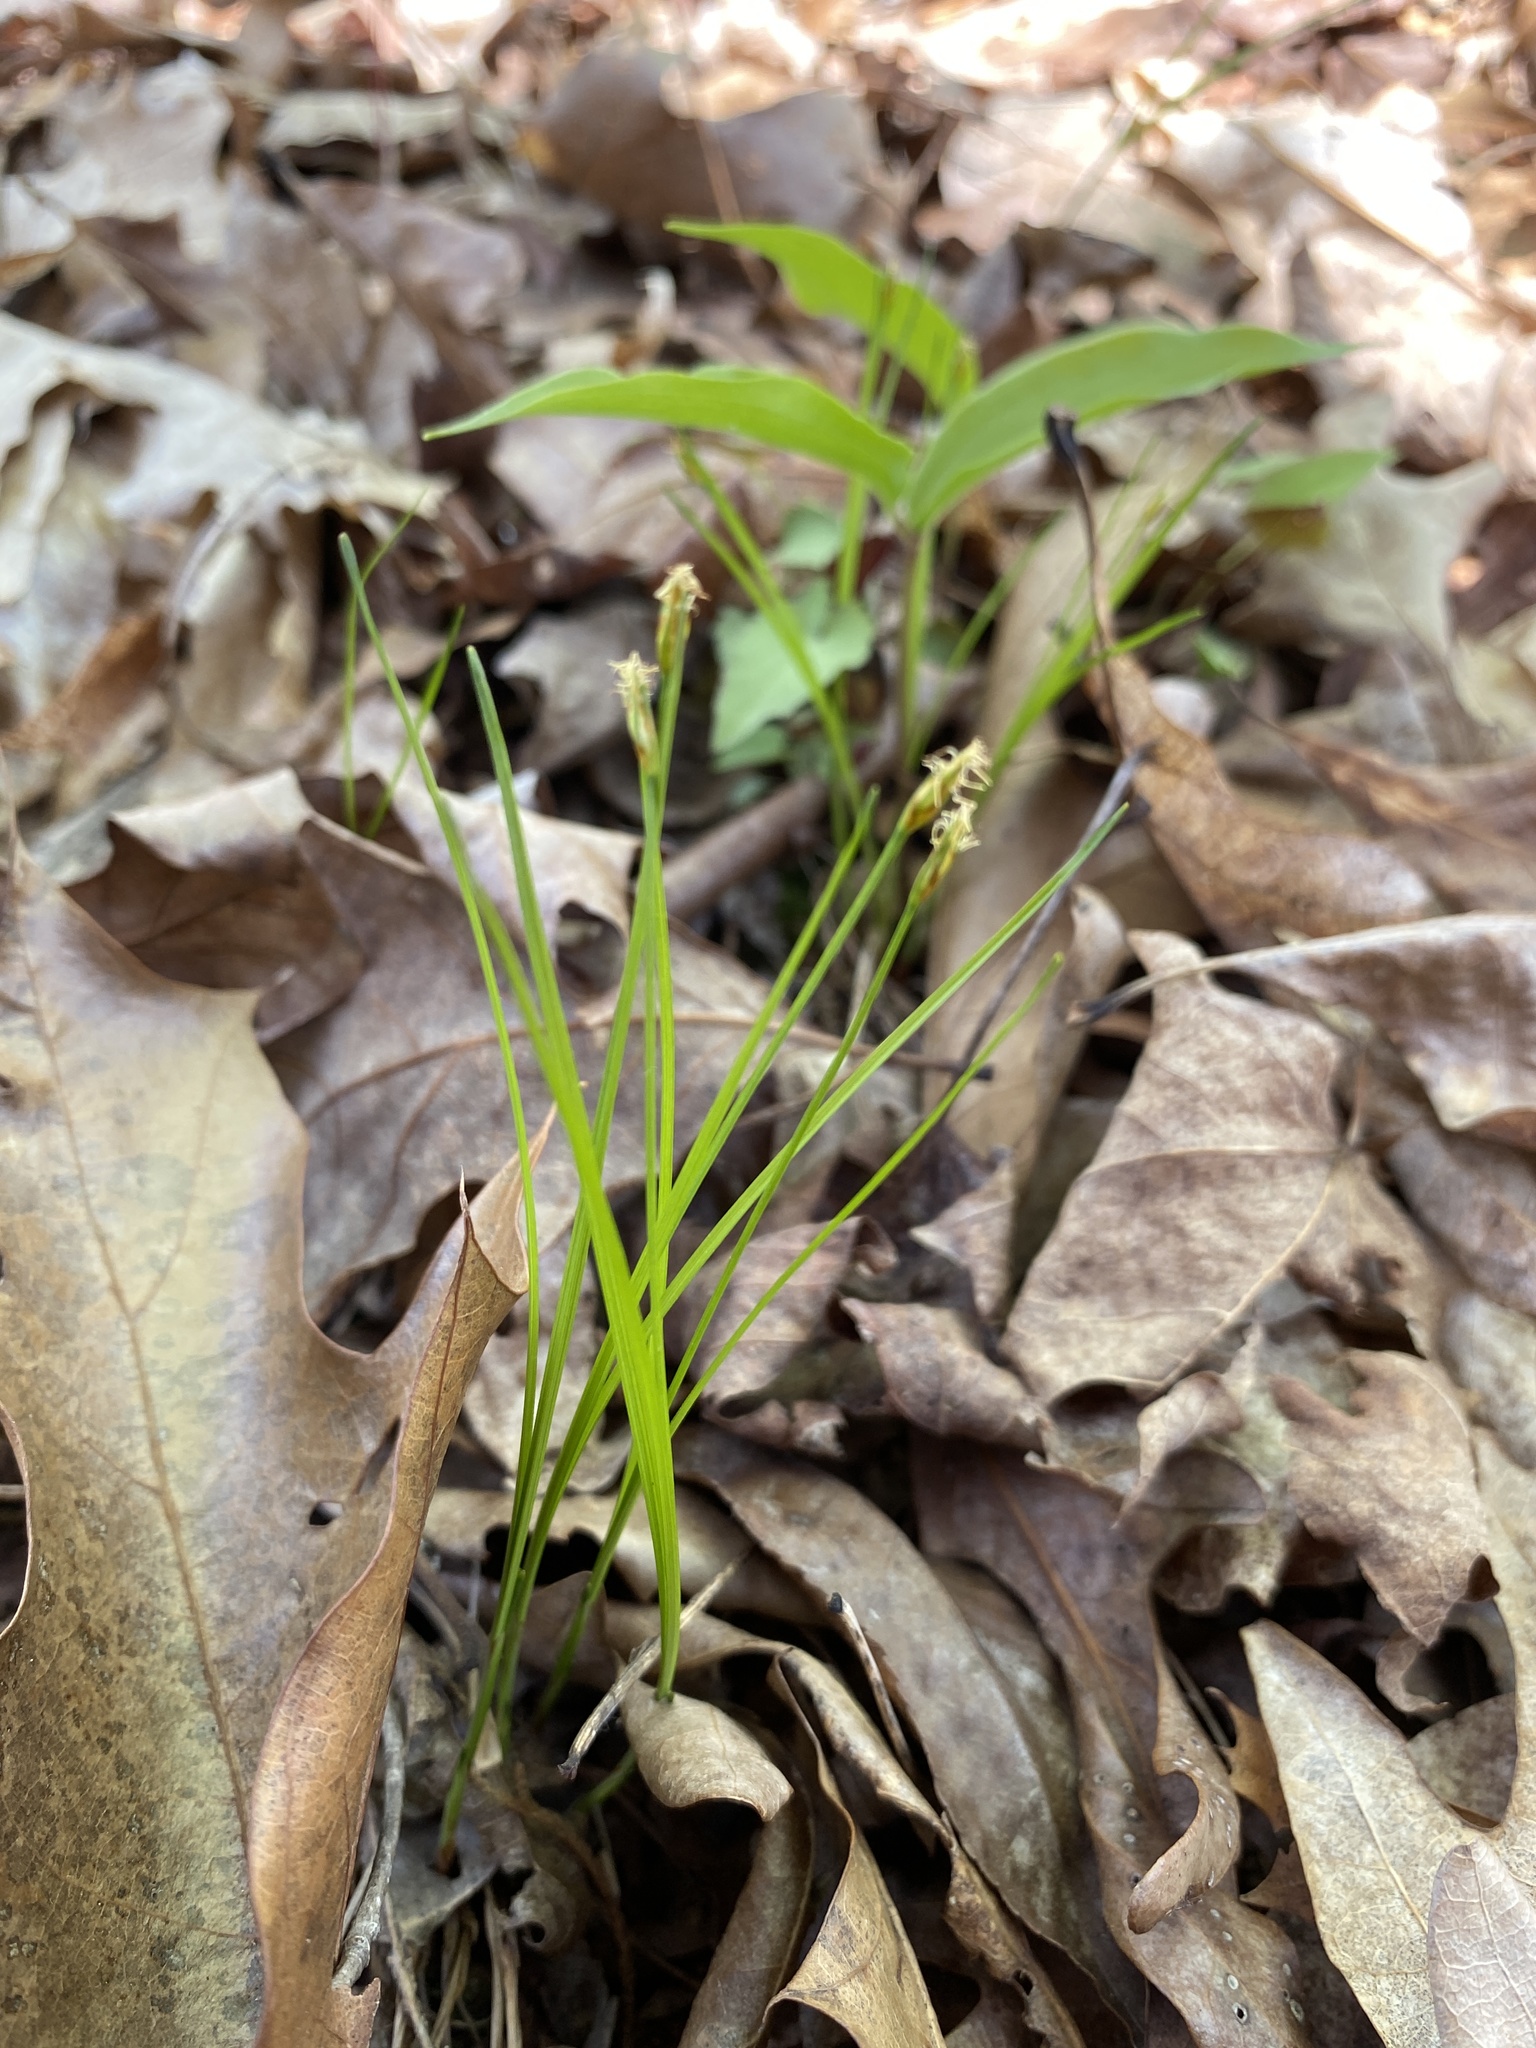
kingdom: Plantae
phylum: Tracheophyta
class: Liliopsida
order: Poales
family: Cyperaceae
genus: Trichophorum
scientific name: Trichophorum planifolium
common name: Bashful bulrush
